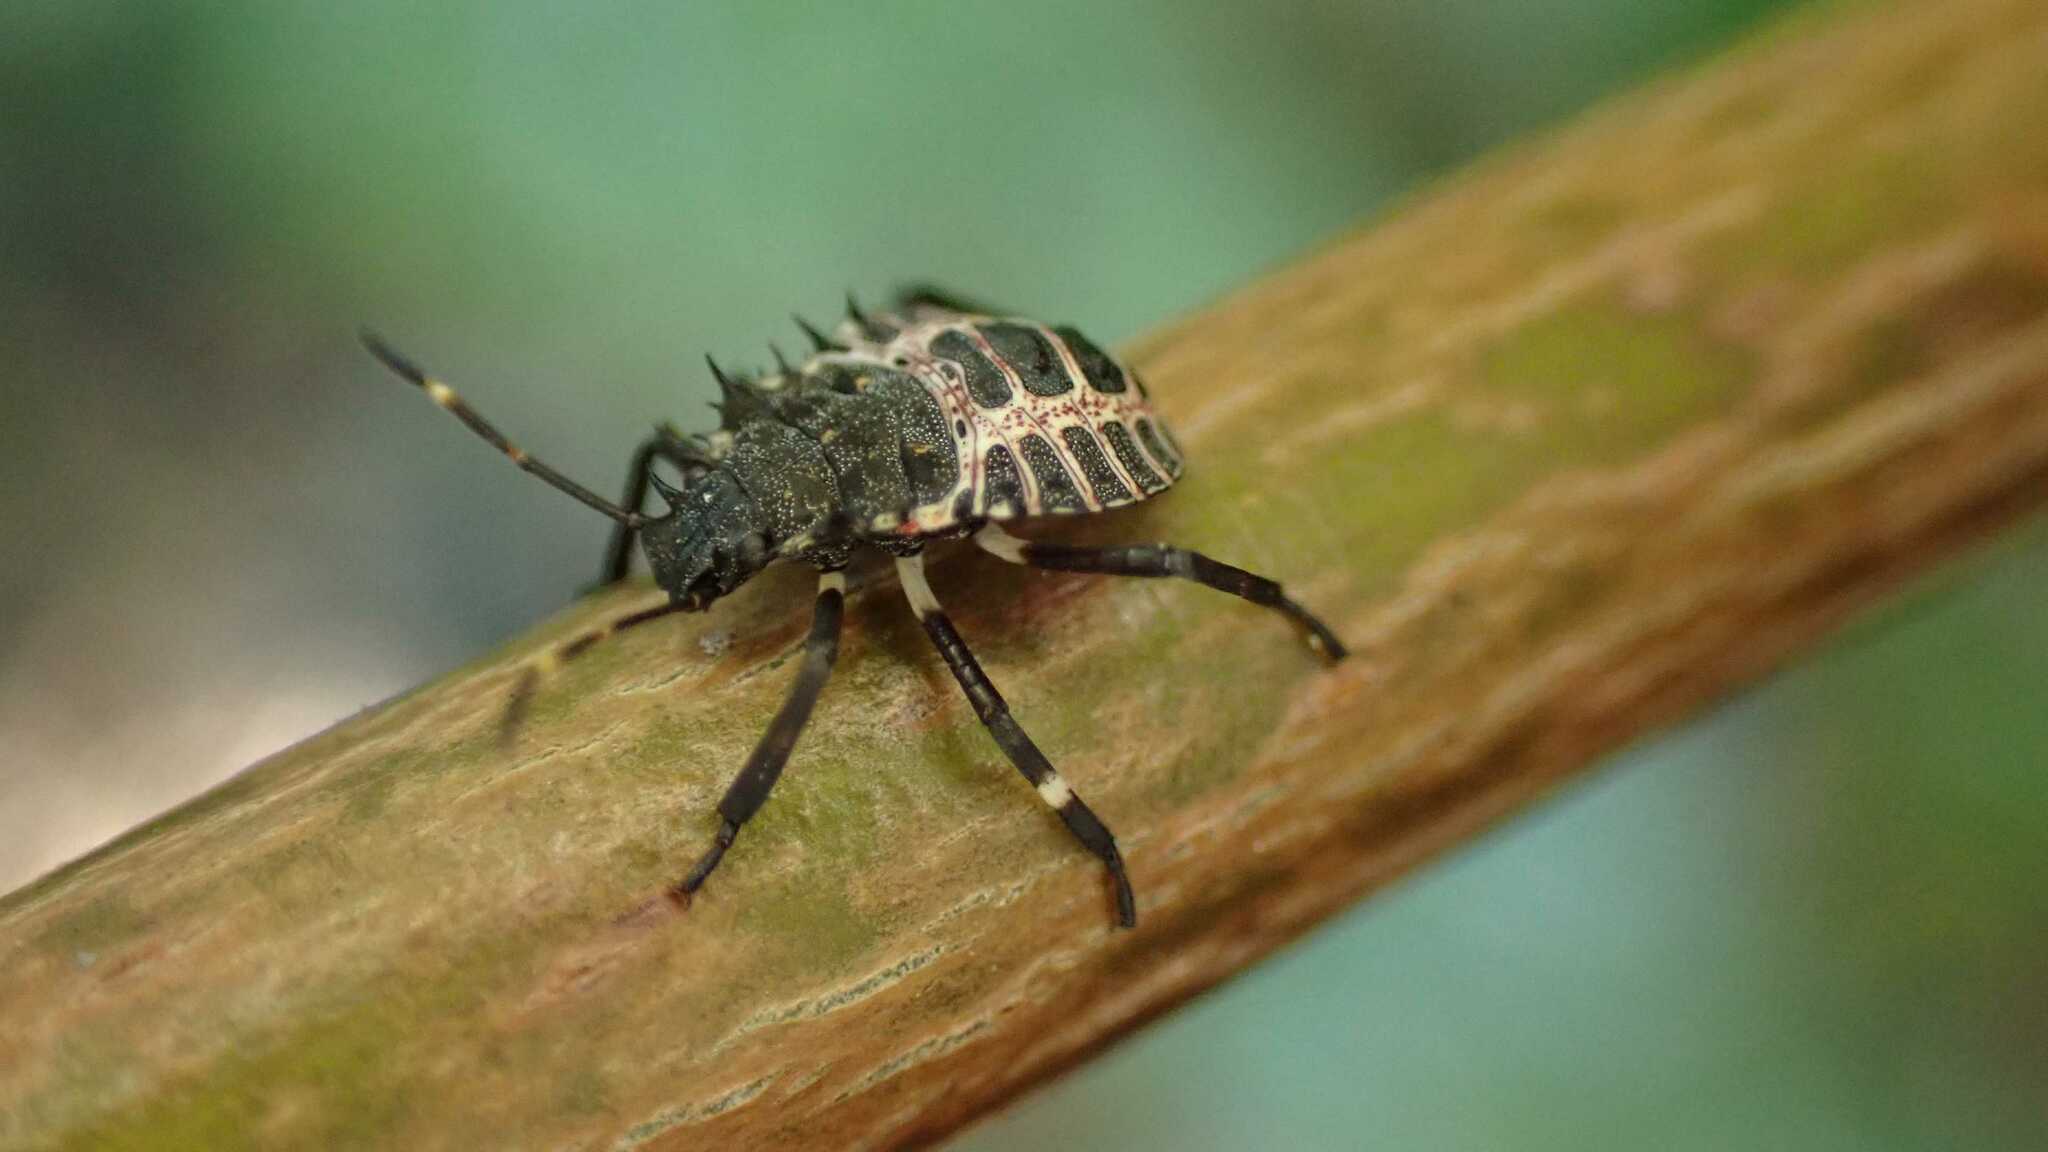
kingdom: Animalia
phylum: Arthropoda
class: Insecta
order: Hemiptera
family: Pentatomidae
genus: Halyomorpha
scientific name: Halyomorpha halys
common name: Brown marmorated stink bug
